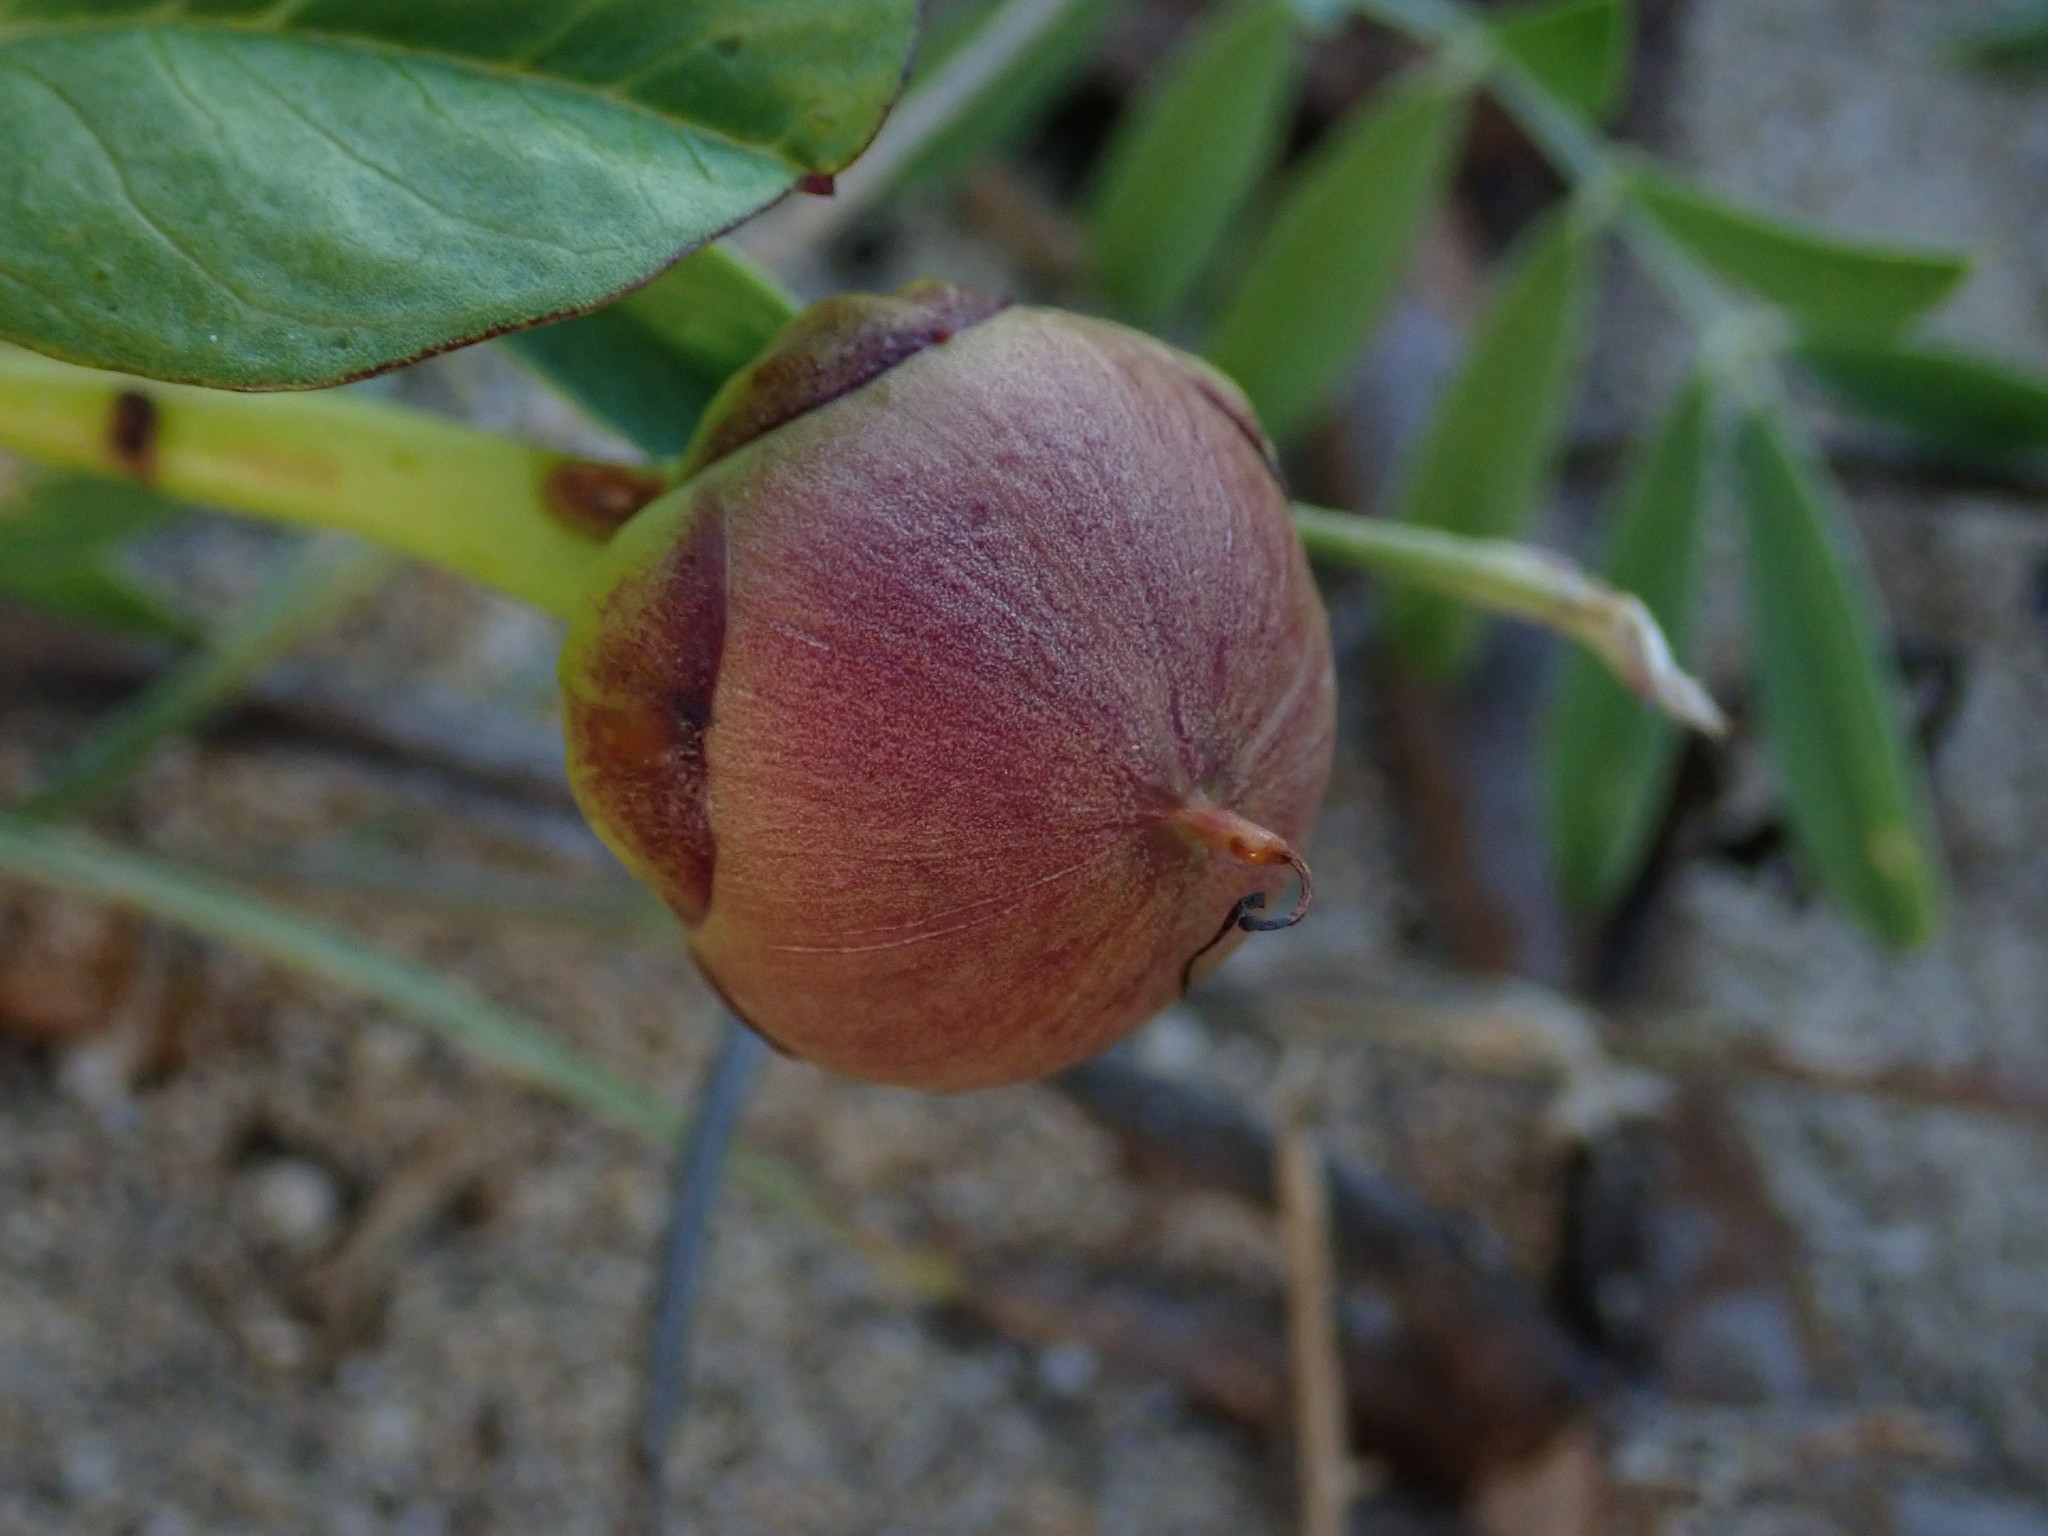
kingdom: Plantae
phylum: Tracheophyta
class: Magnoliopsida
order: Solanales
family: Convolvulaceae
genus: Ipomoea
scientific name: Ipomoea pes-caprae
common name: Beach morning glory
